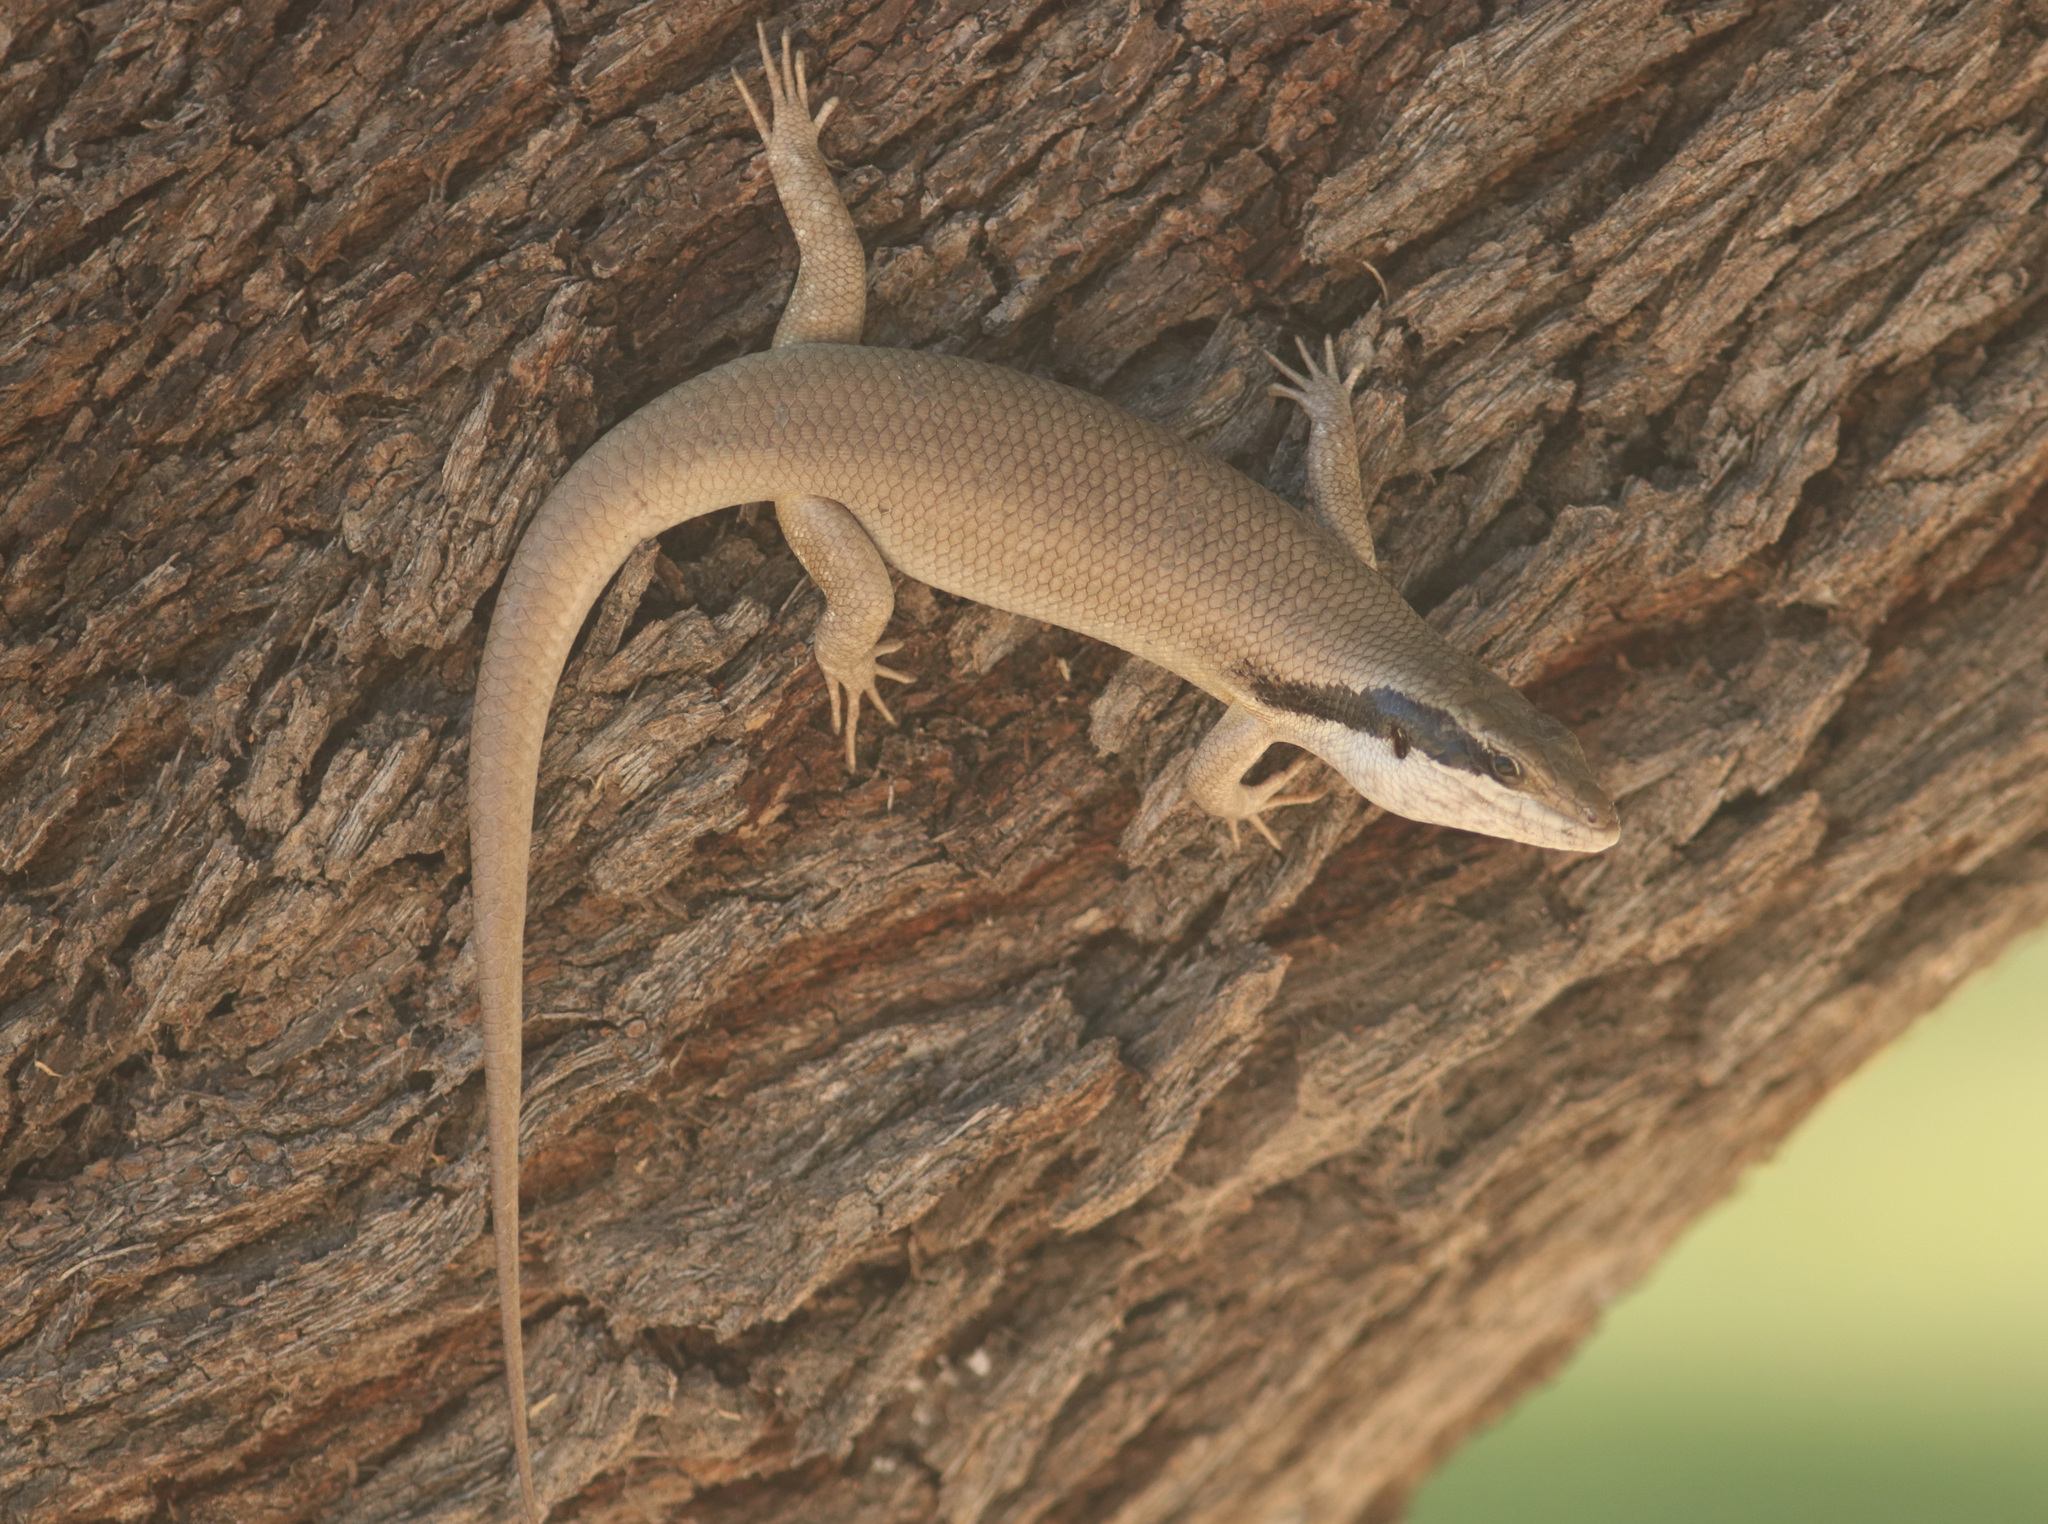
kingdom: Animalia
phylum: Chordata
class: Squamata
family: Scincidae
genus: Trachylepis
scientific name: Trachylepis binotata
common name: Bocage's mabuya
